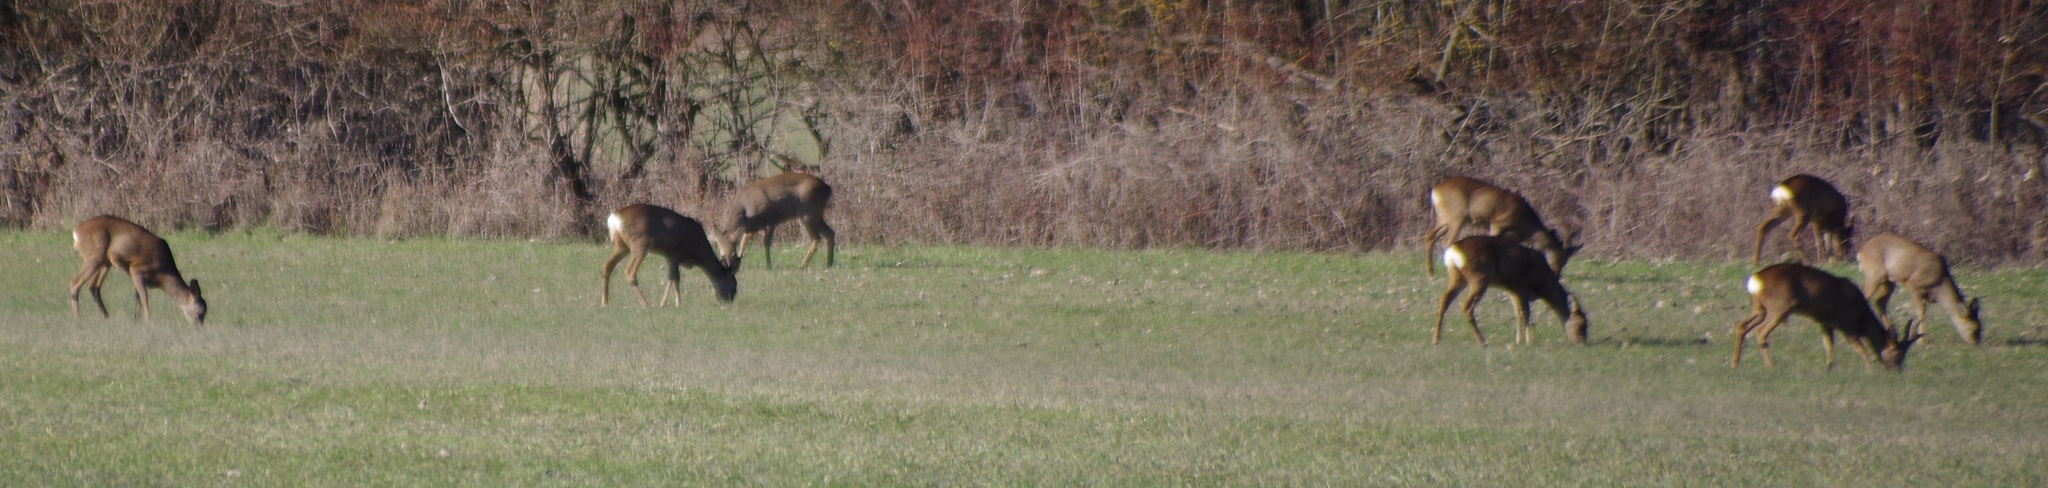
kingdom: Animalia
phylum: Chordata
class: Mammalia
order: Artiodactyla
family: Cervidae
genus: Capreolus
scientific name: Capreolus capreolus
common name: Western roe deer
